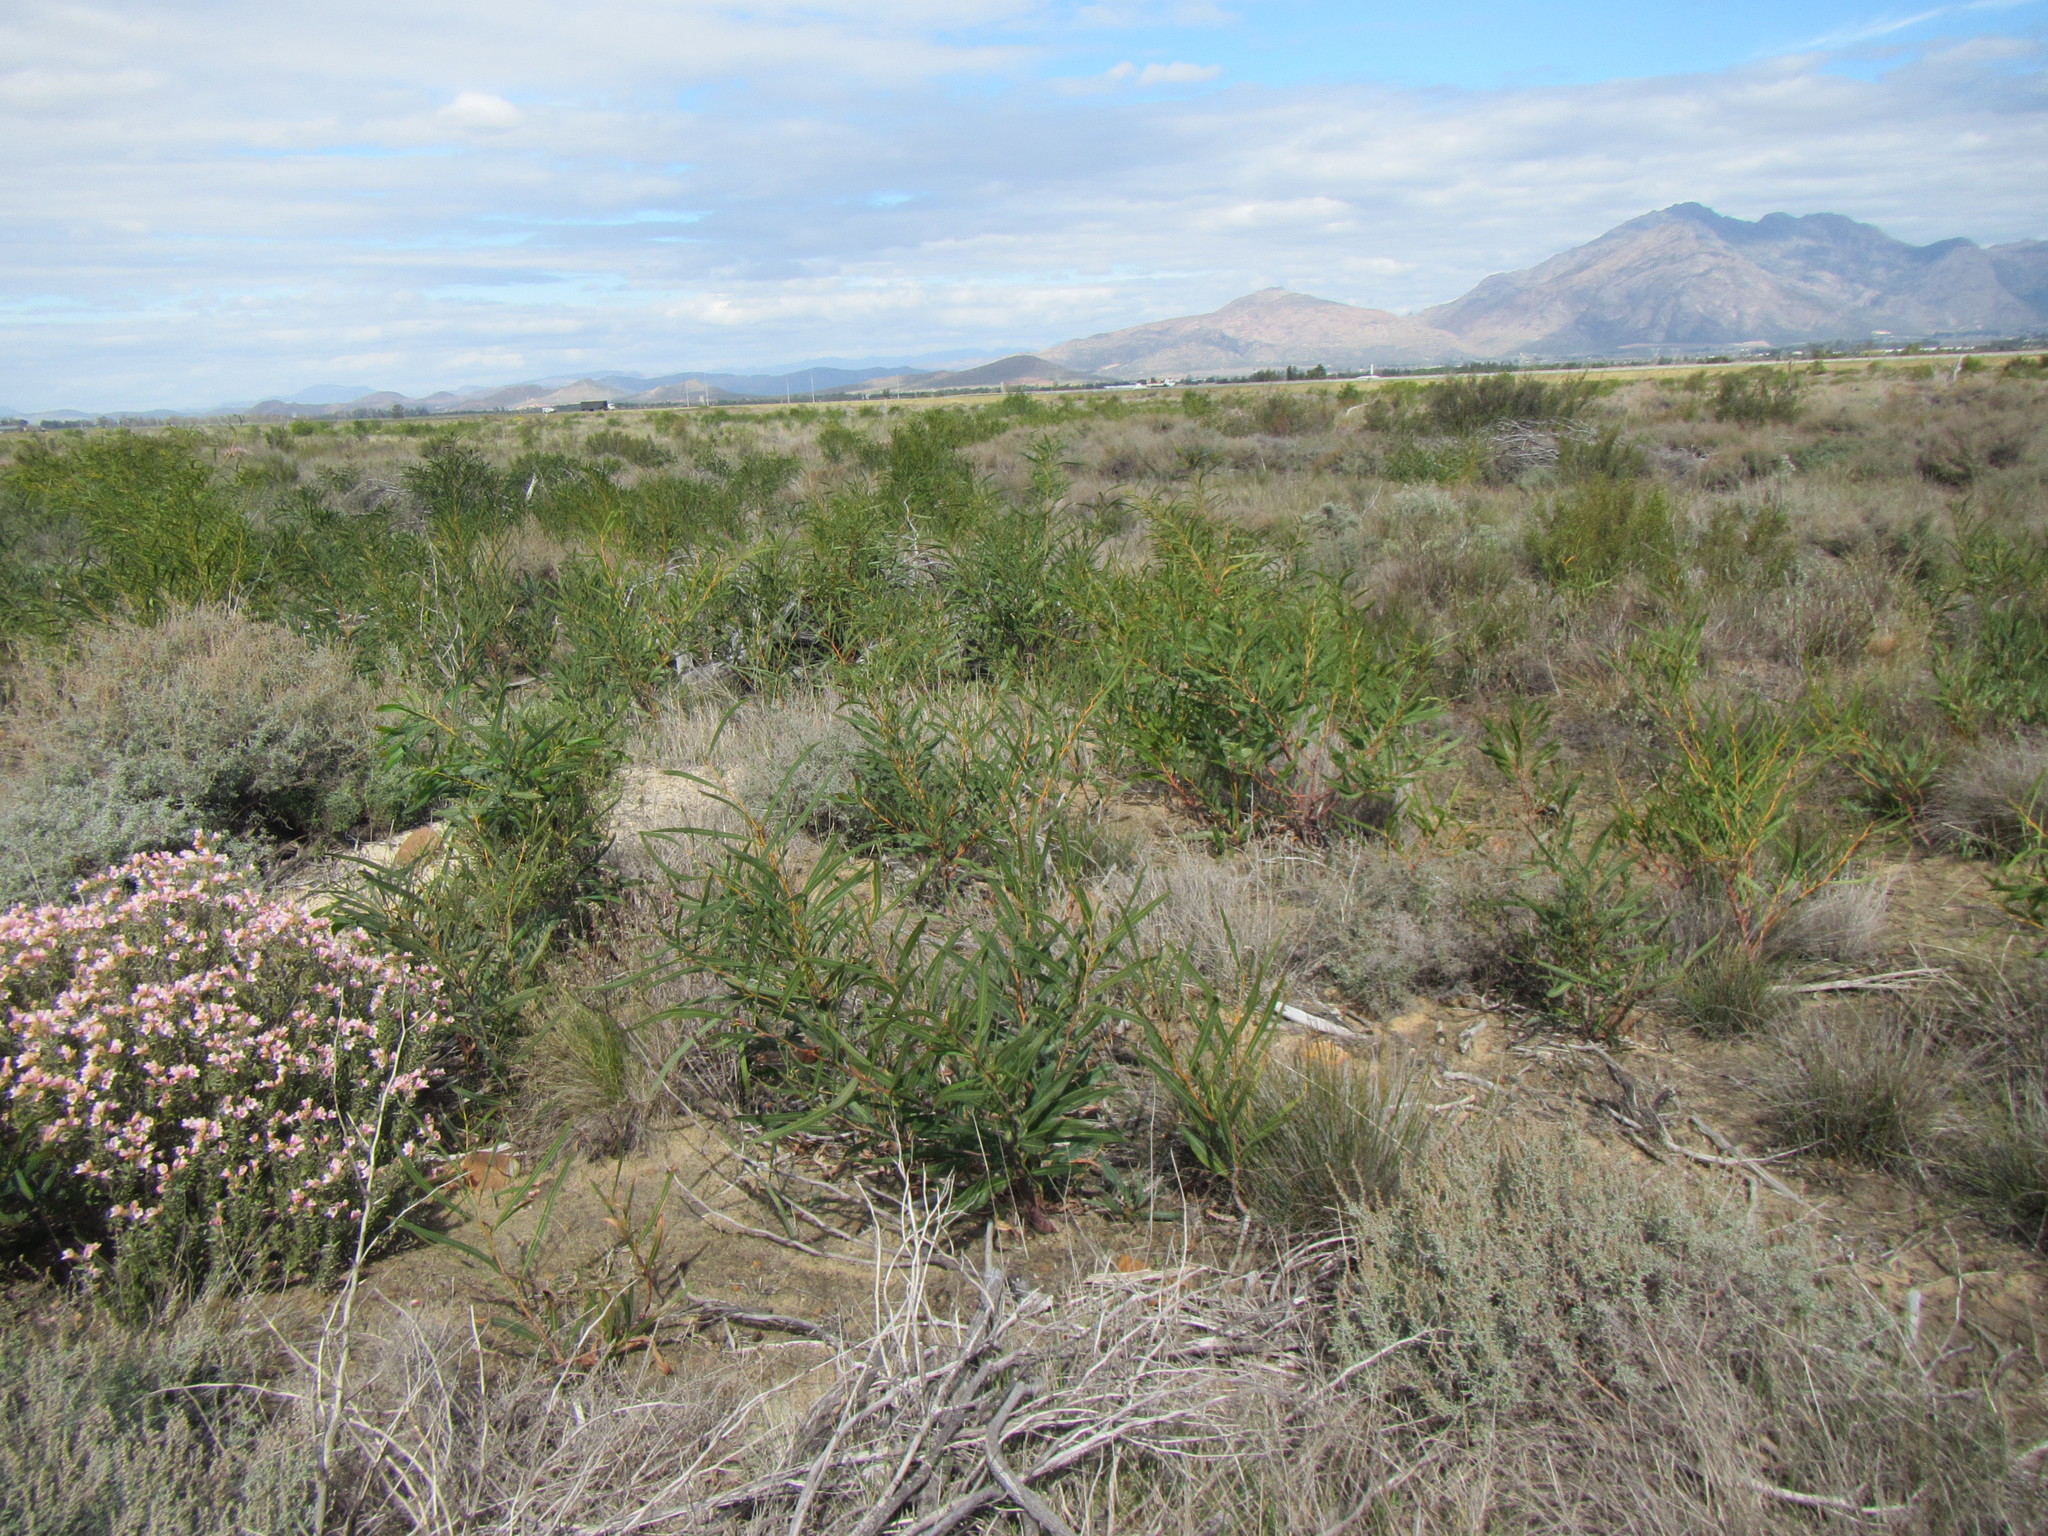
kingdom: Plantae
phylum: Tracheophyta
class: Magnoliopsida
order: Fabales
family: Fabaceae
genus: Acacia
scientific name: Acacia saligna
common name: Orange wattle
